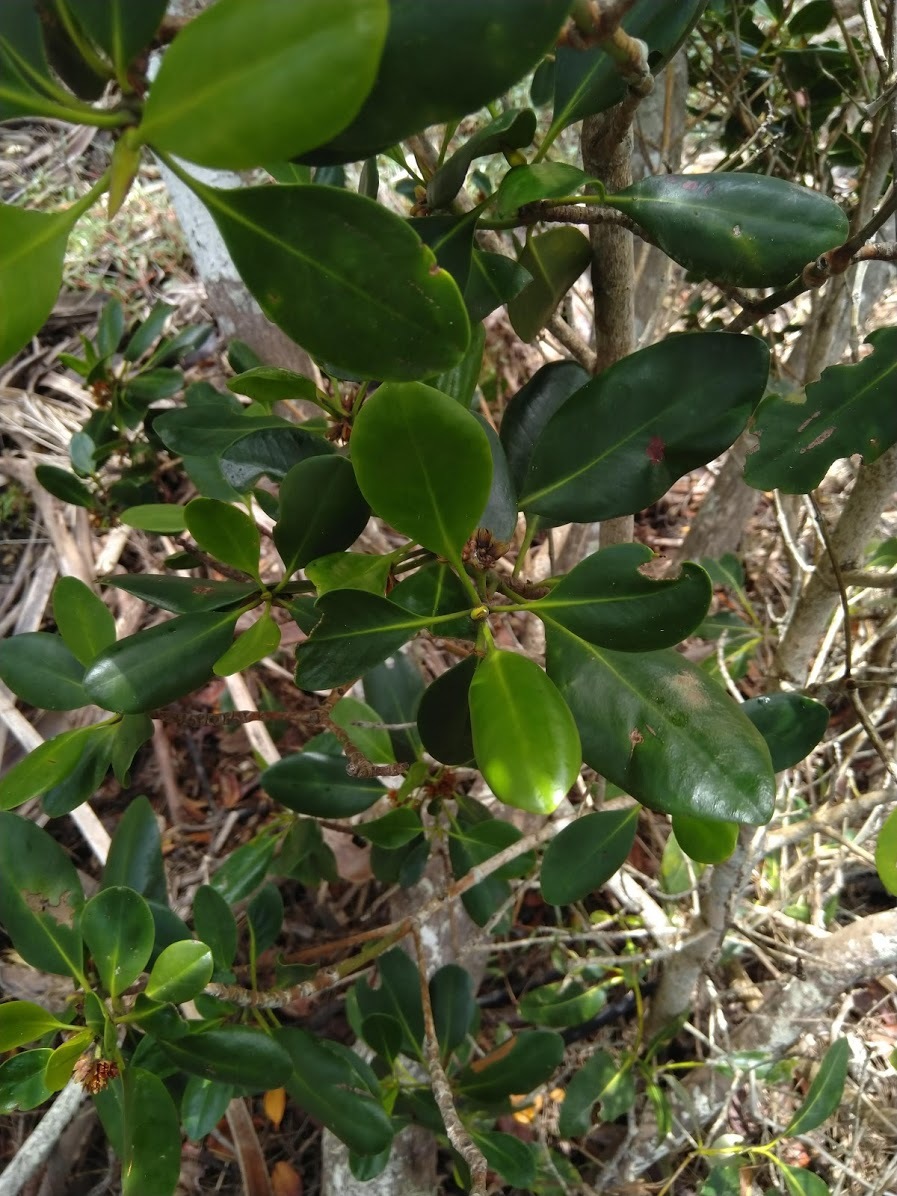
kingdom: Plantae
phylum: Tracheophyta
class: Magnoliopsida
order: Malpighiales
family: Rhizophoraceae
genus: Ceriops
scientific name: Ceriops australis
